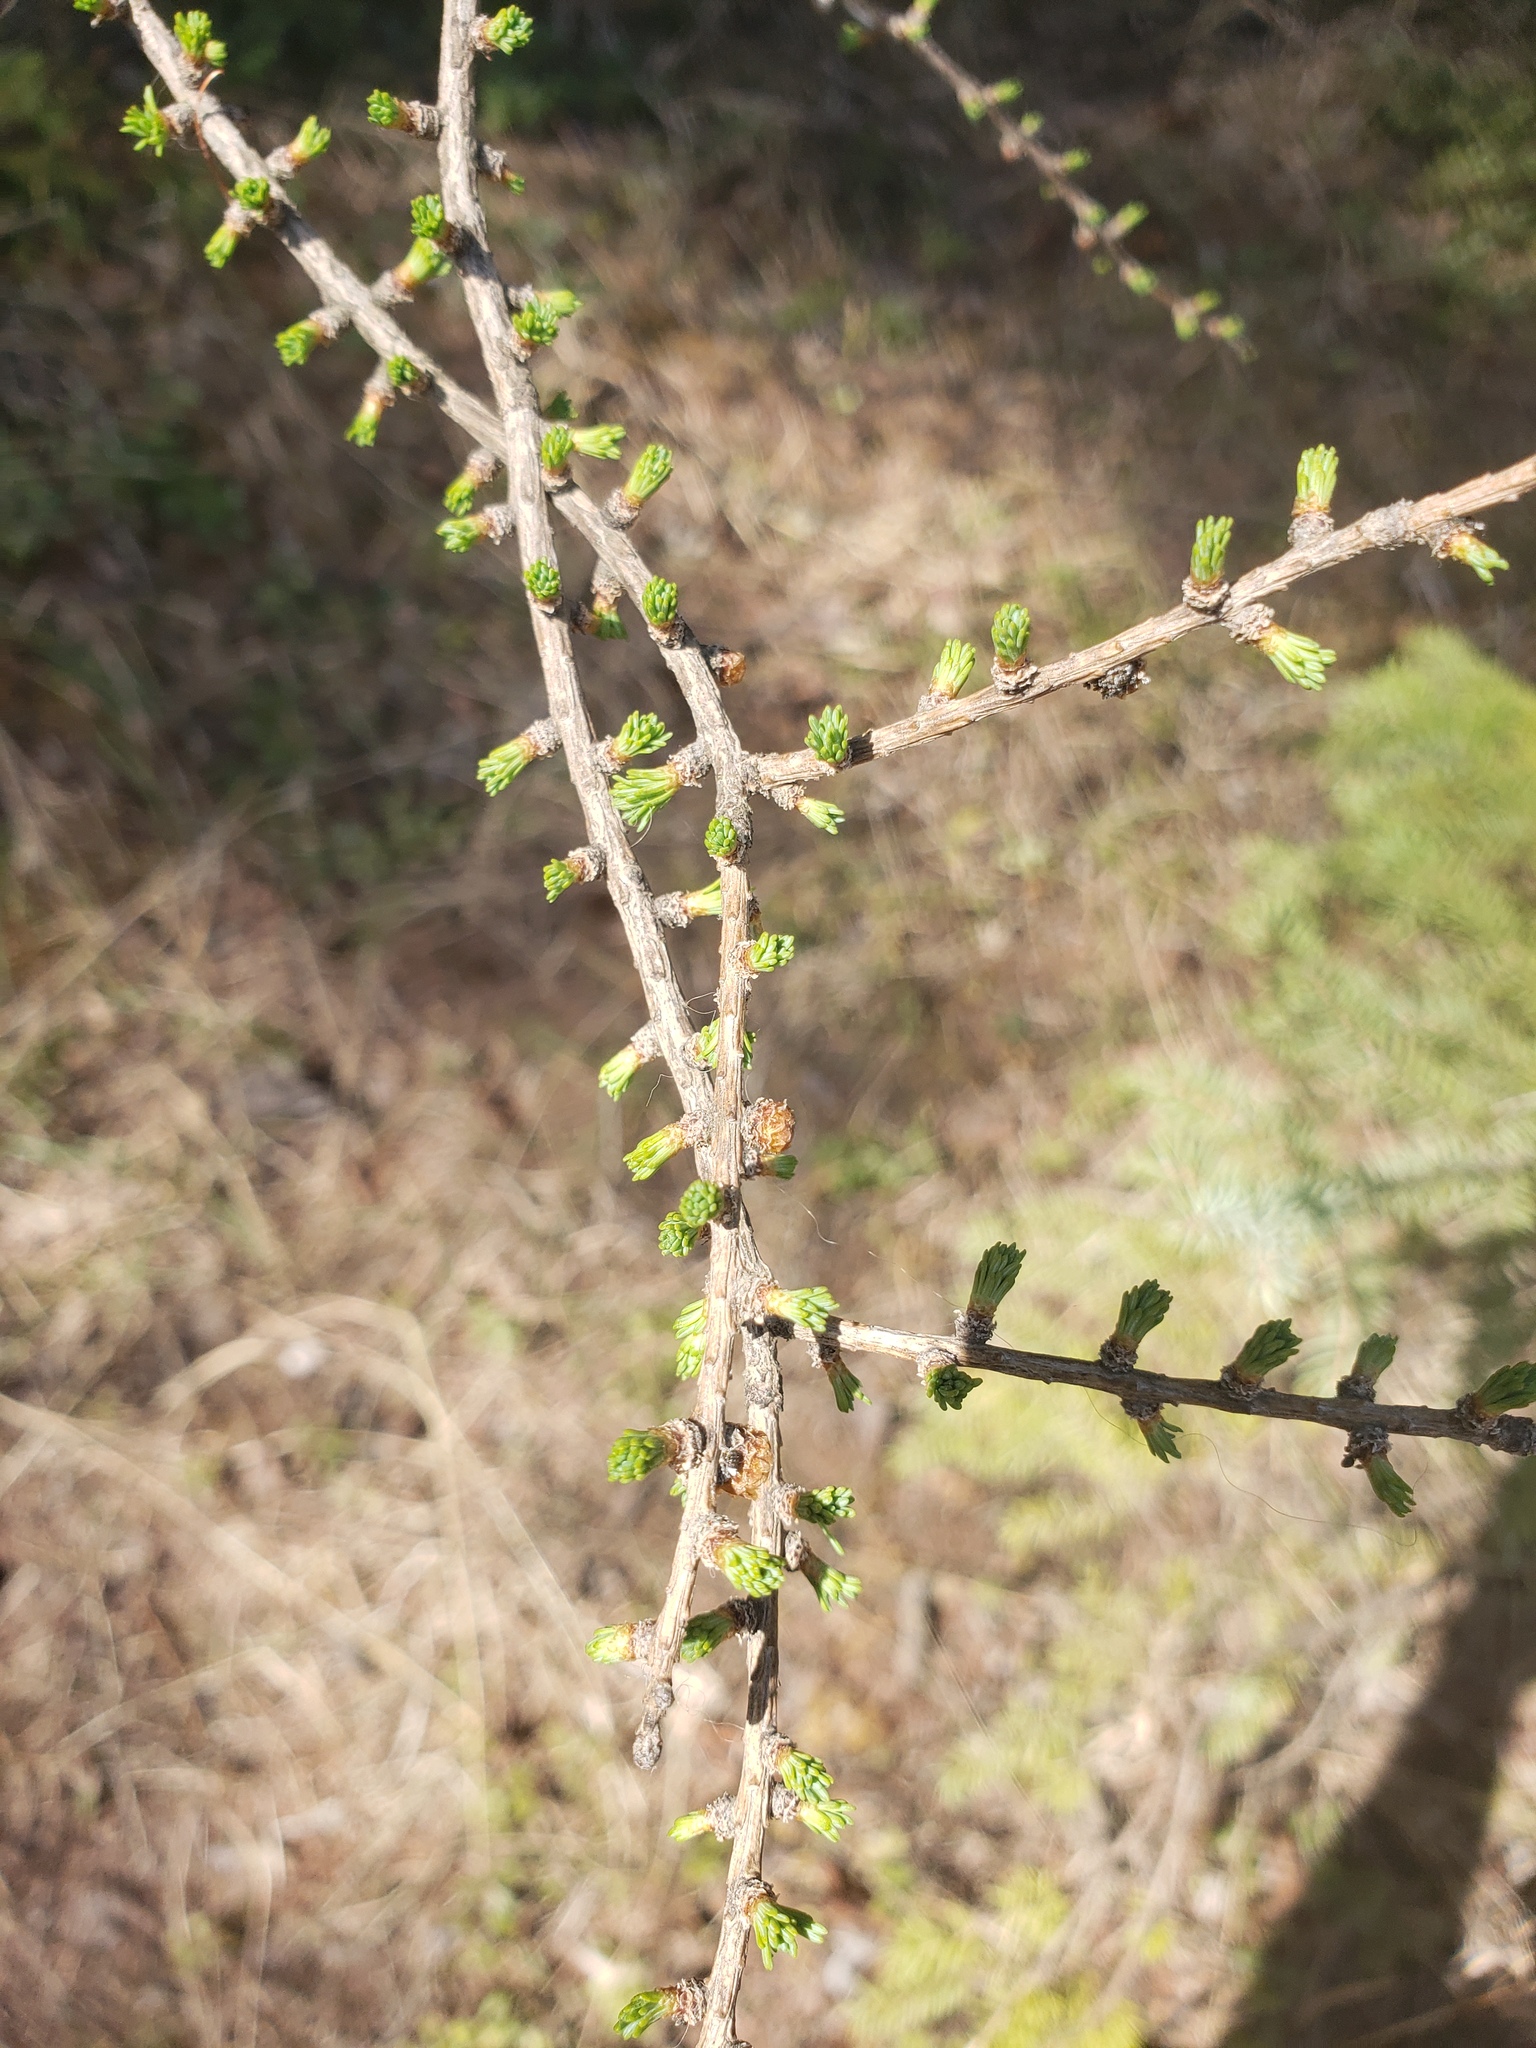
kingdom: Plantae
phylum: Tracheophyta
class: Pinopsida
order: Pinales
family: Pinaceae
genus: Larix
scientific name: Larix laricina
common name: American larch
